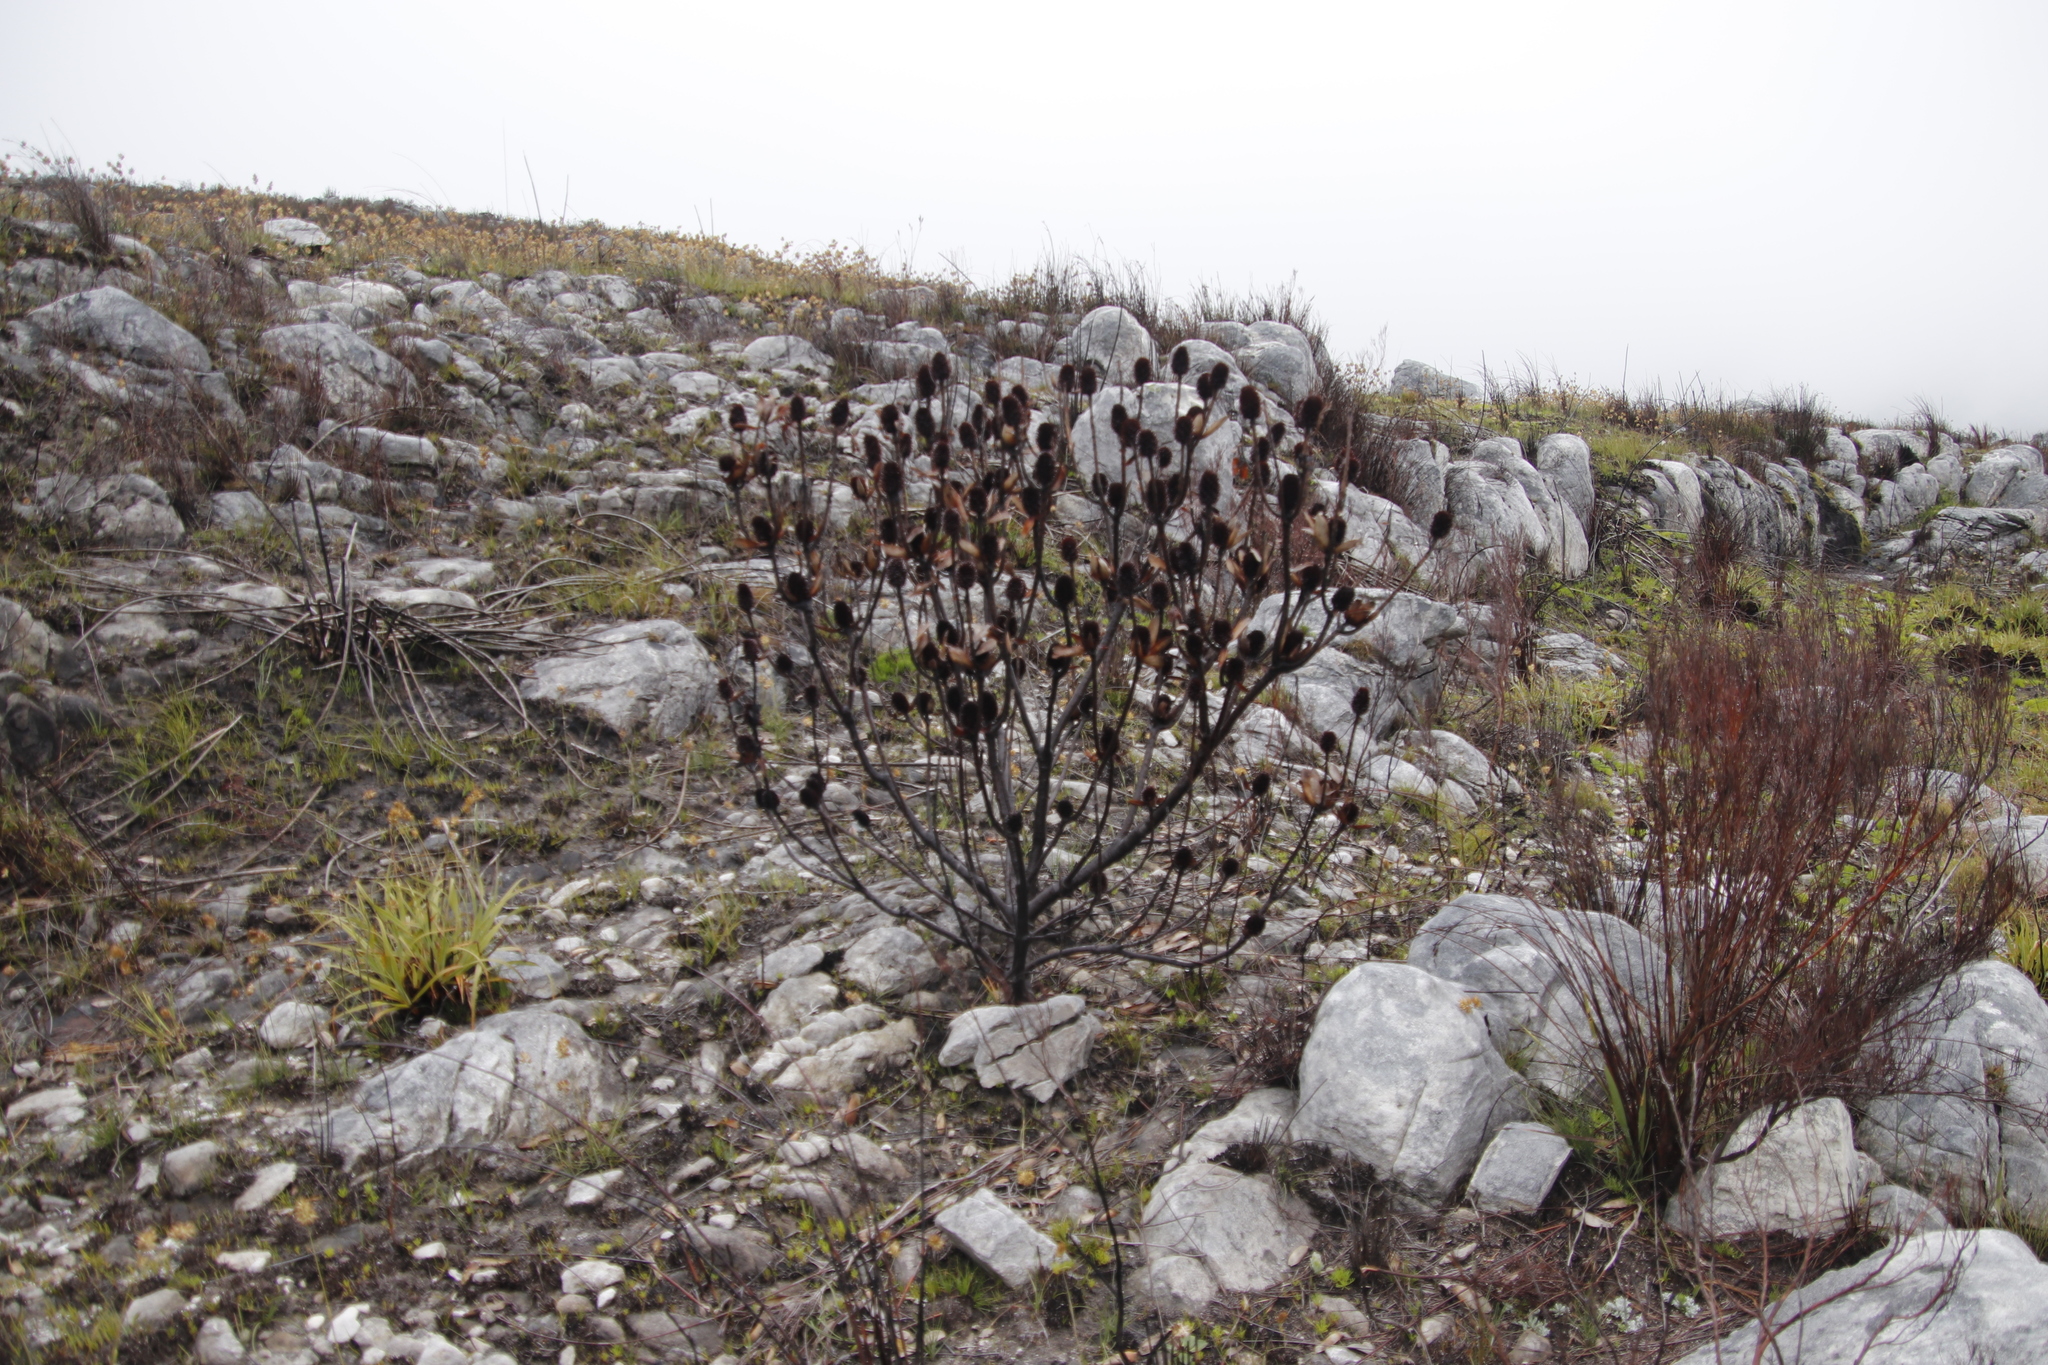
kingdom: Plantae
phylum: Tracheophyta
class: Magnoliopsida
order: Proteales
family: Proteaceae
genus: Leucadendron
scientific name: Leucadendron gandogeri
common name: Broad-leaf conebush
